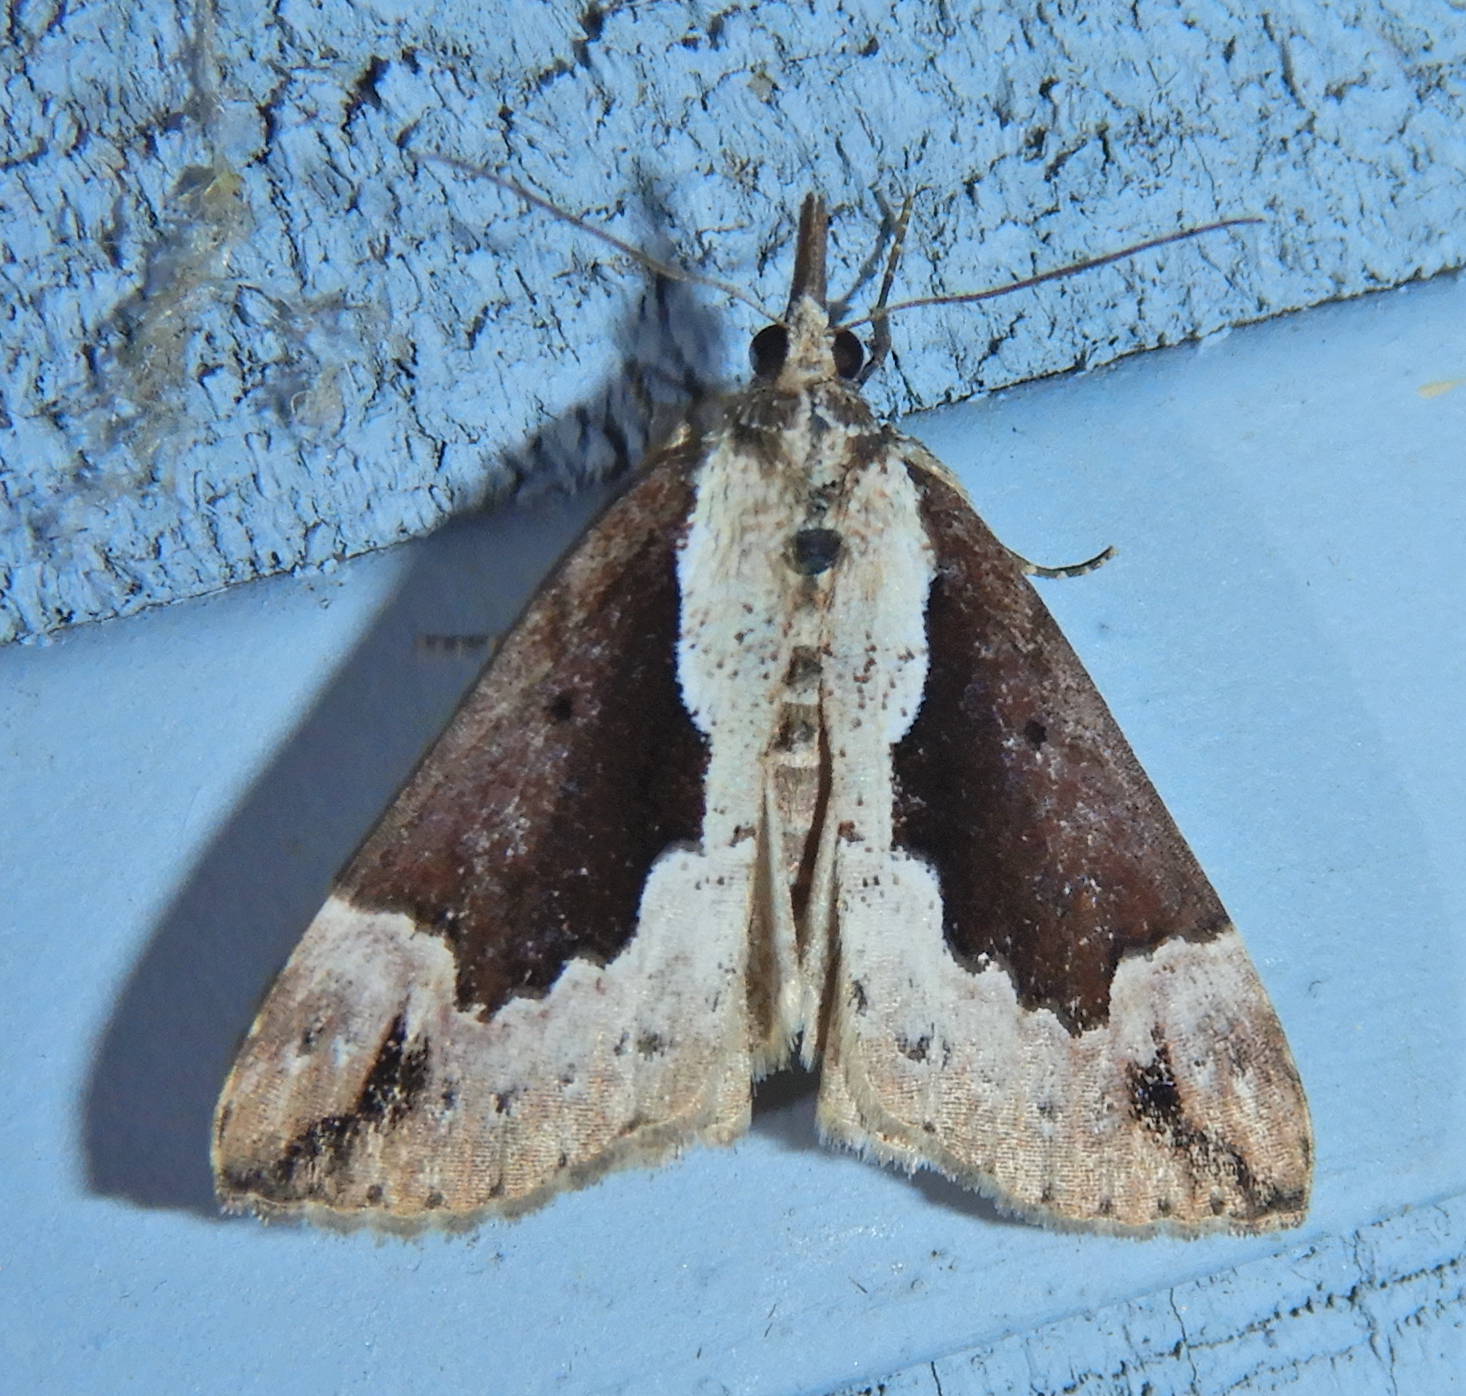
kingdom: Animalia
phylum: Arthropoda
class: Insecta
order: Lepidoptera
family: Erebidae
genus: Hypena
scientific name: Hypena baltimoralis
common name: Baltimore snout
